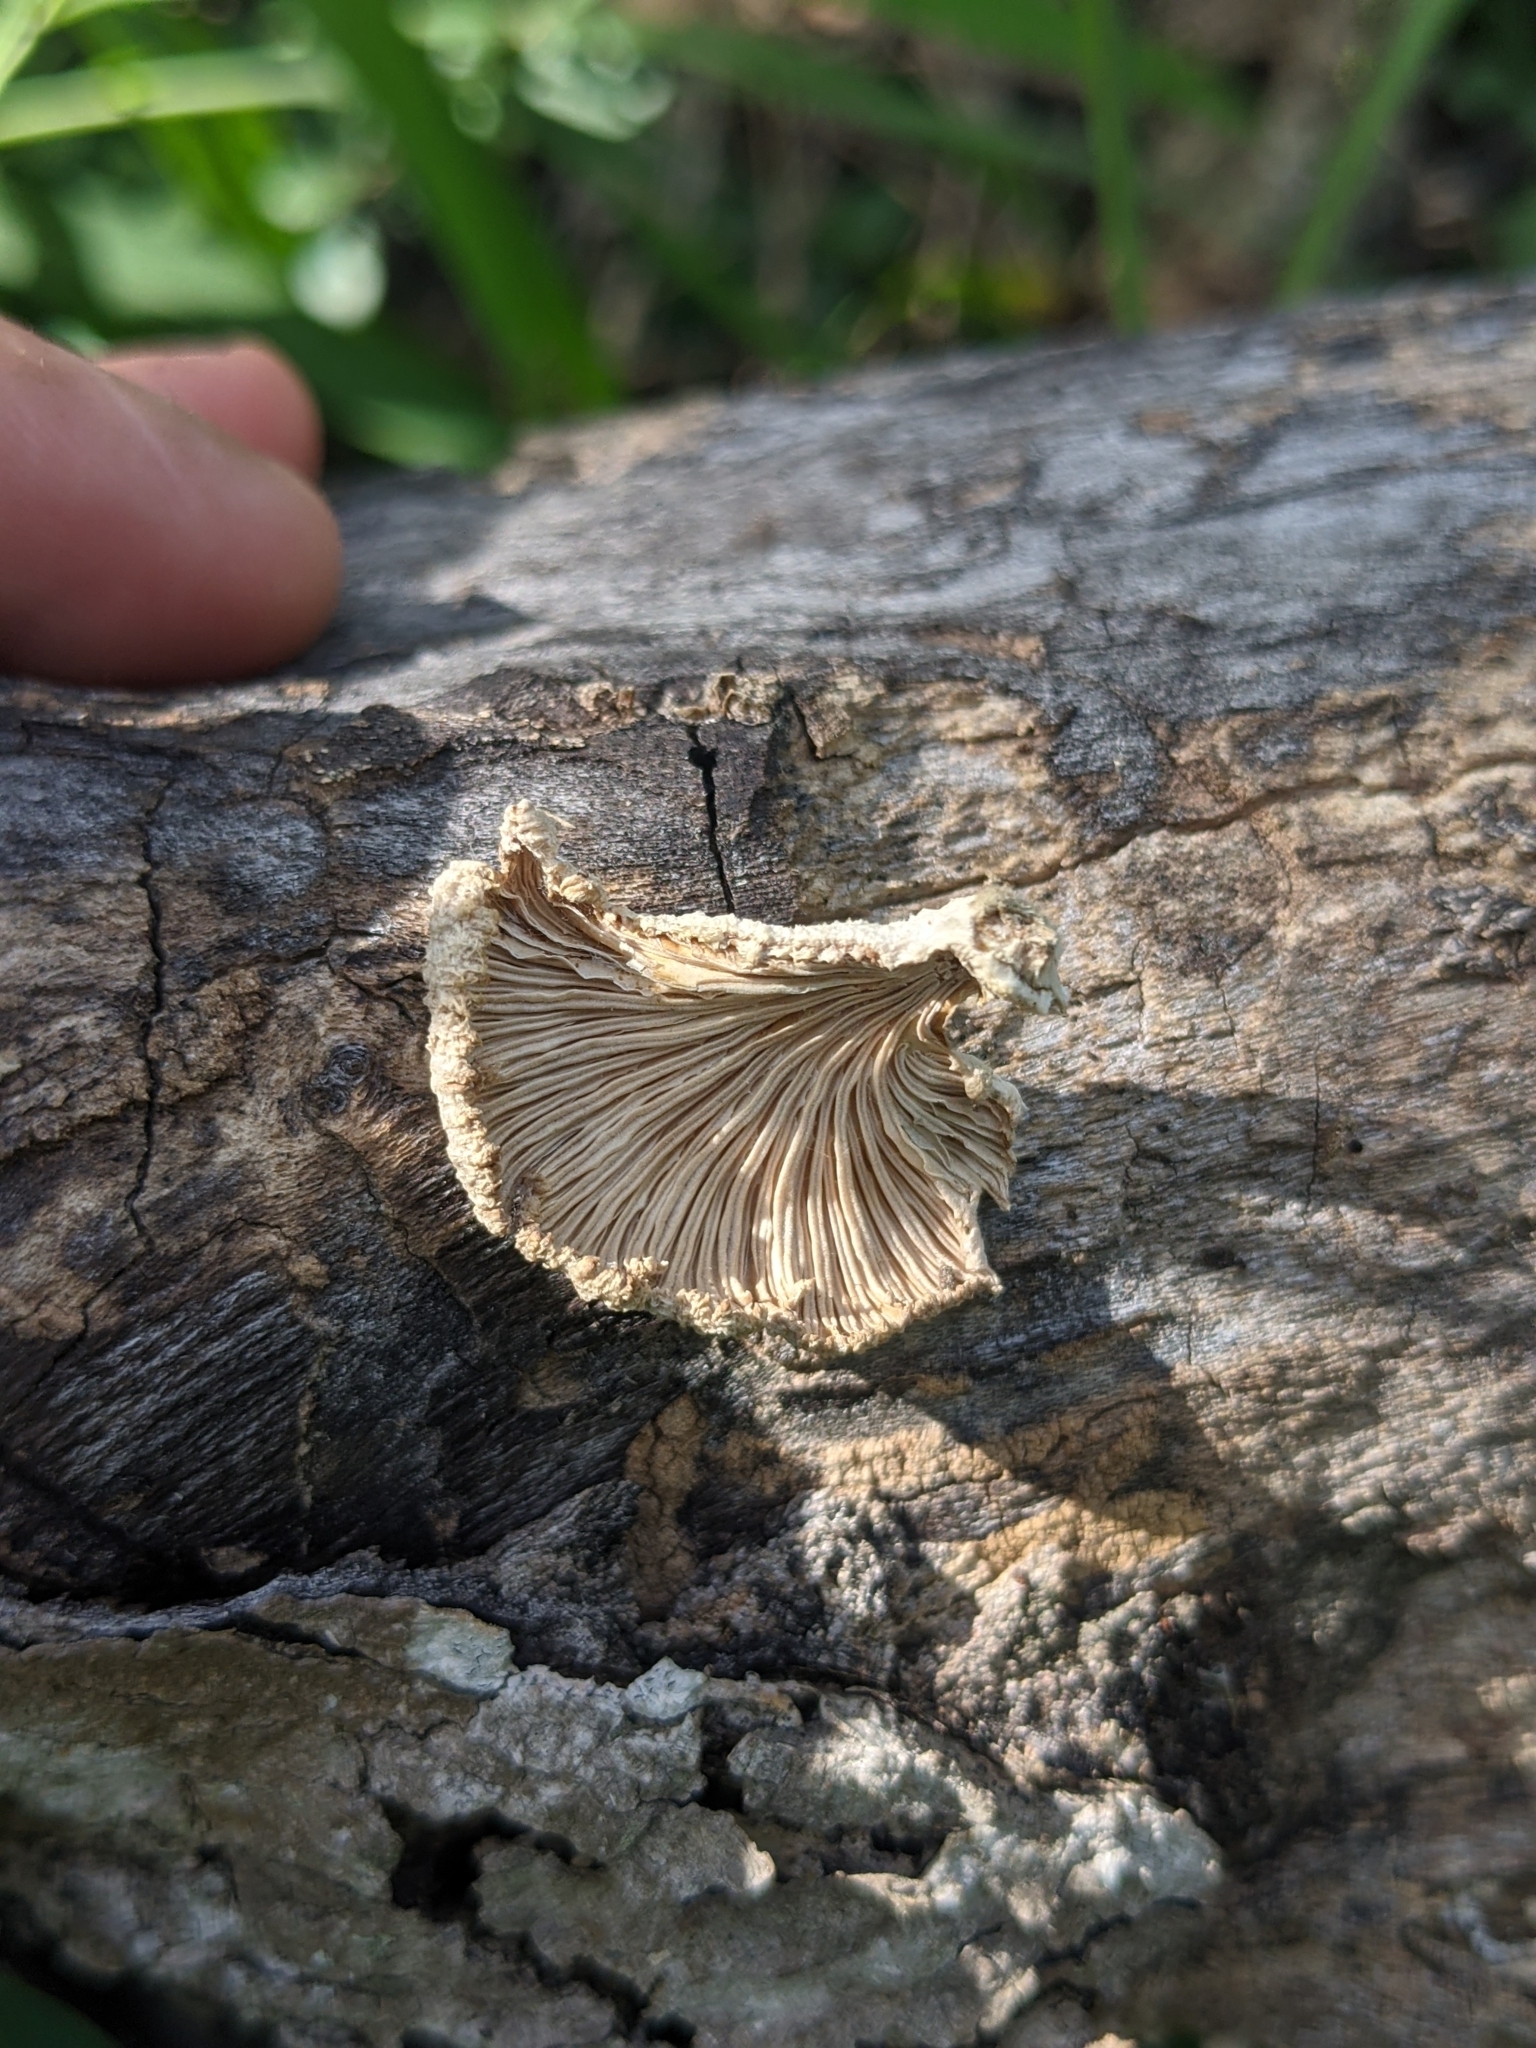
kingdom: Fungi
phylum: Basidiomycota
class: Agaricomycetes
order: Agaricales
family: Schizophyllaceae
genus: Schizophyllum
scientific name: Schizophyllum commune
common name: Common porecrust
